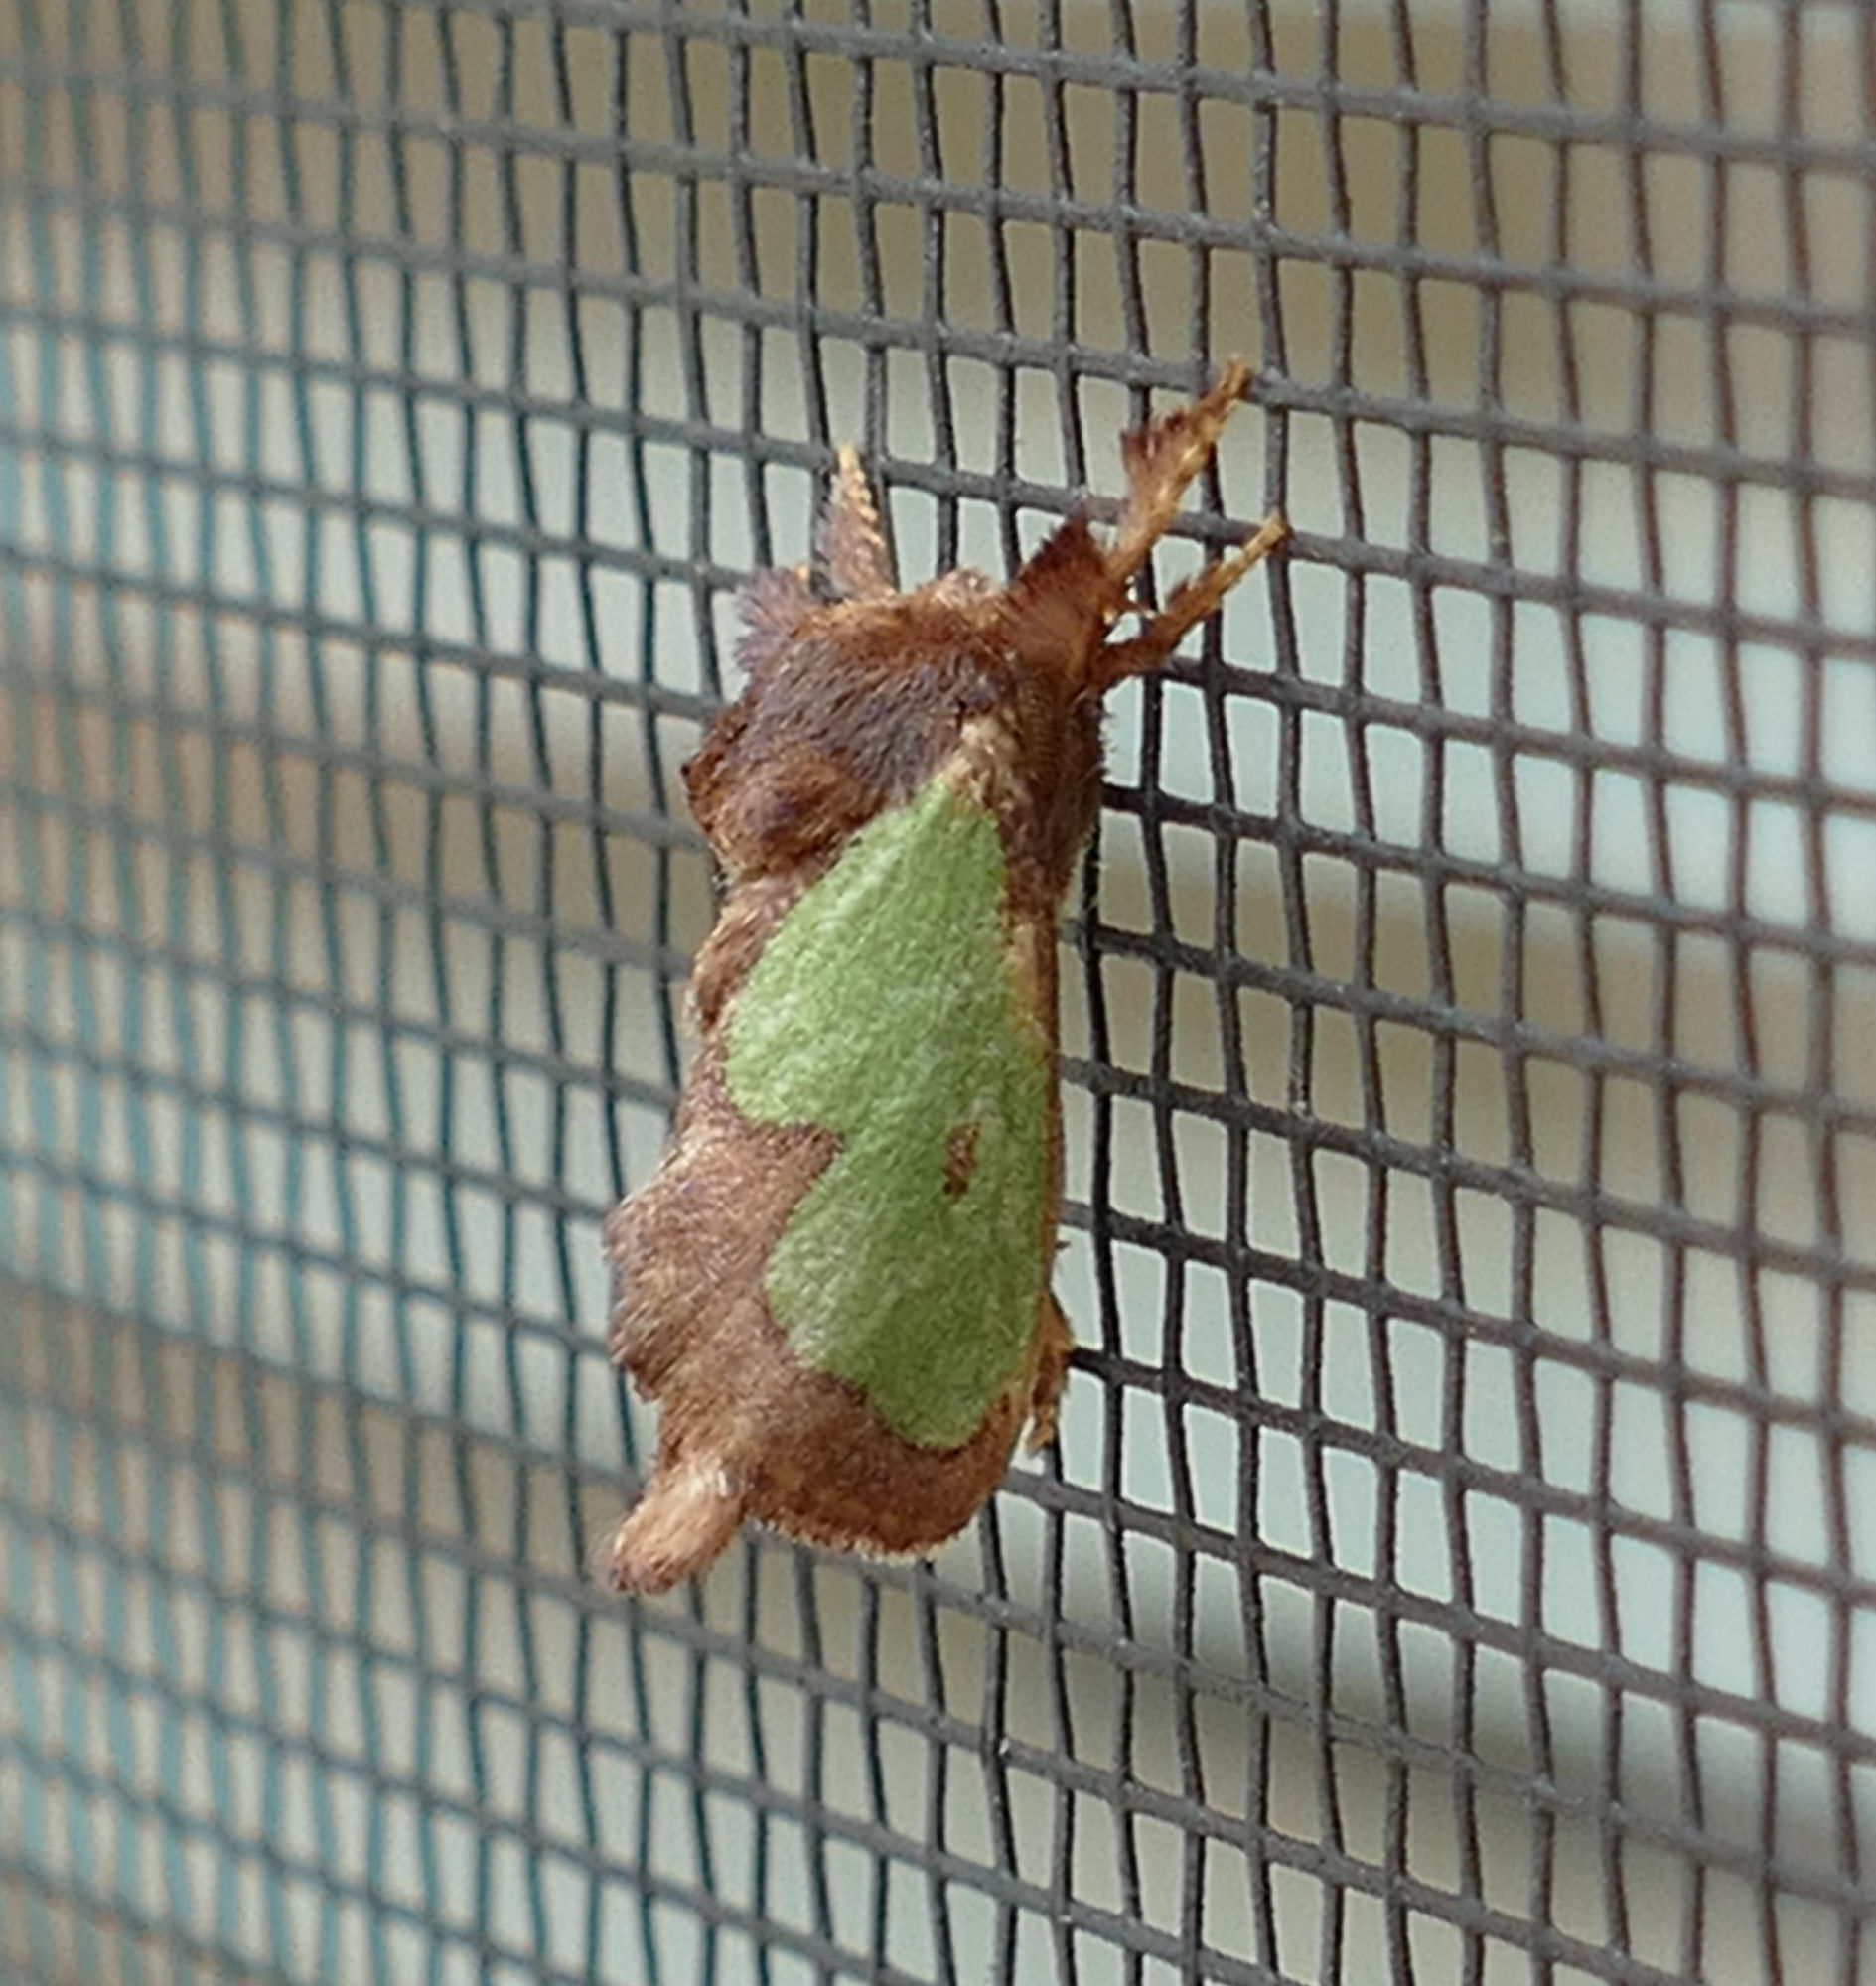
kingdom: Animalia
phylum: Arthropoda
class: Insecta
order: Lepidoptera
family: Limacodidae
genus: Euclea
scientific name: Euclea incisa
